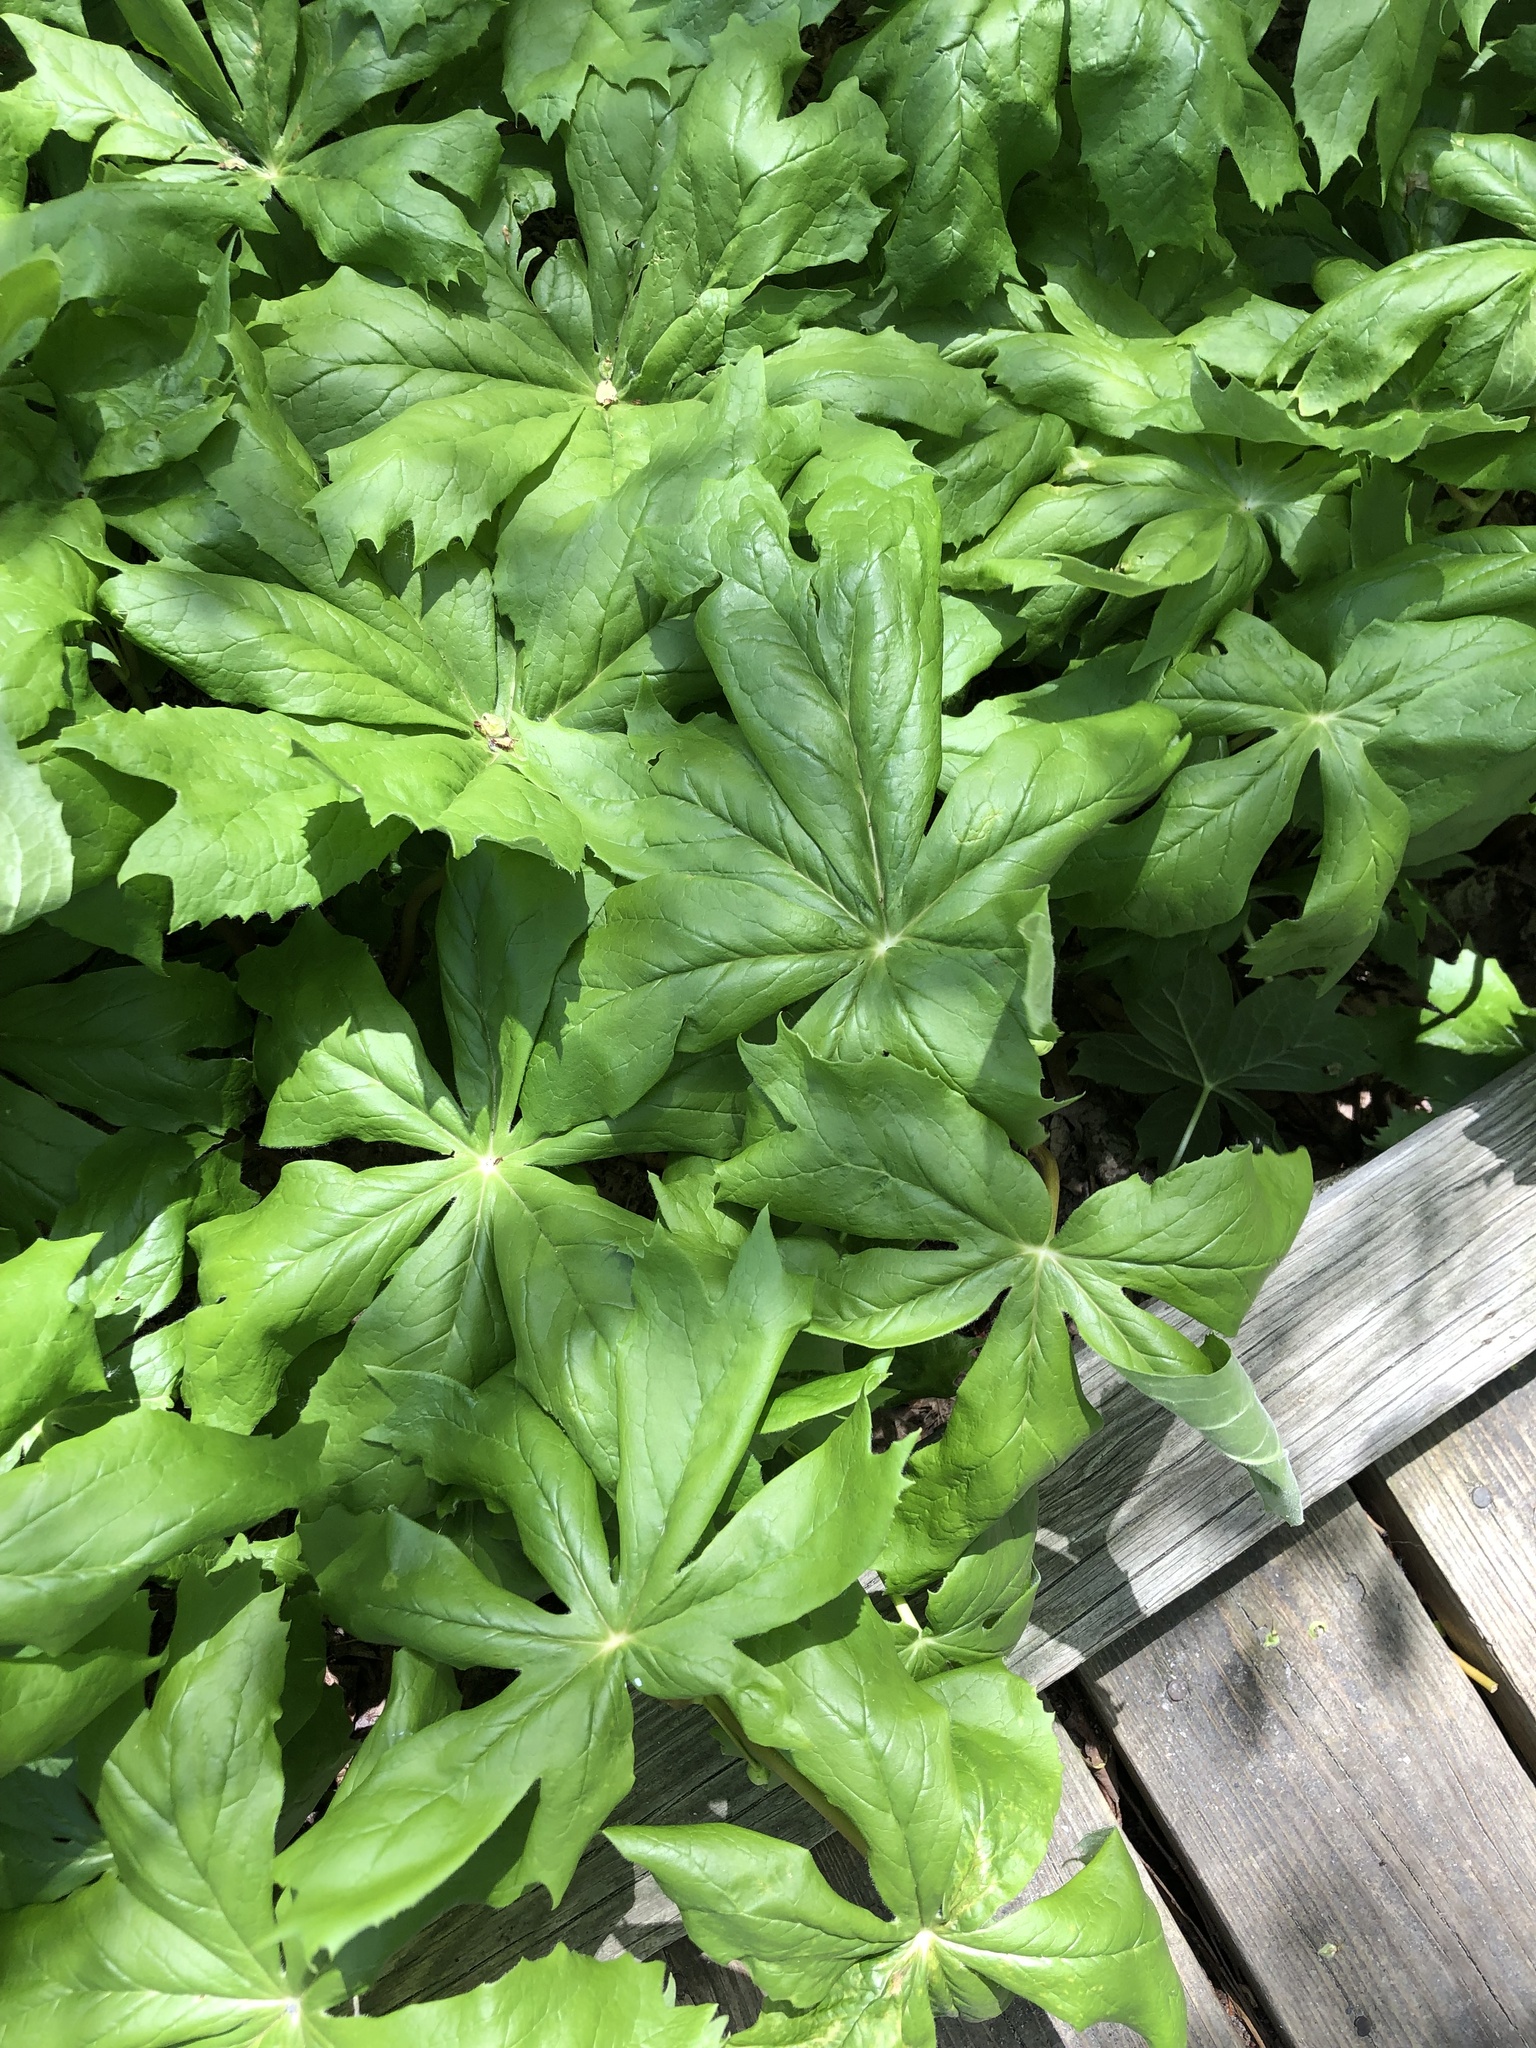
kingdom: Plantae
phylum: Tracheophyta
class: Magnoliopsida
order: Ranunculales
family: Berberidaceae
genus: Podophyllum
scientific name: Podophyllum peltatum
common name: Wild mandrake
